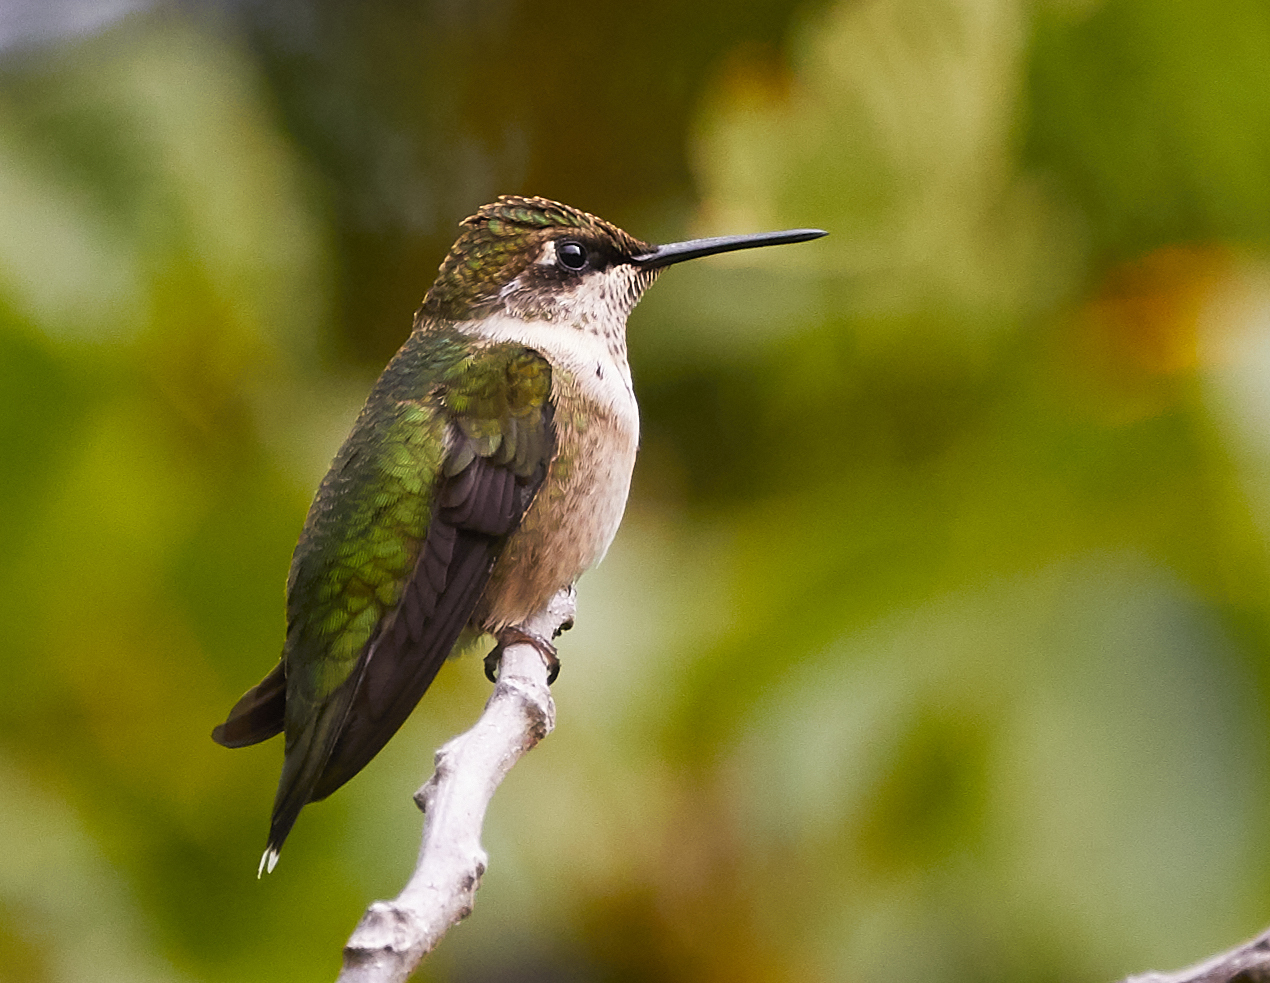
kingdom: Animalia
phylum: Chordata
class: Aves
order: Apodiformes
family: Trochilidae
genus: Archilochus
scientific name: Archilochus colubris
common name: Ruby-throated hummingbird
